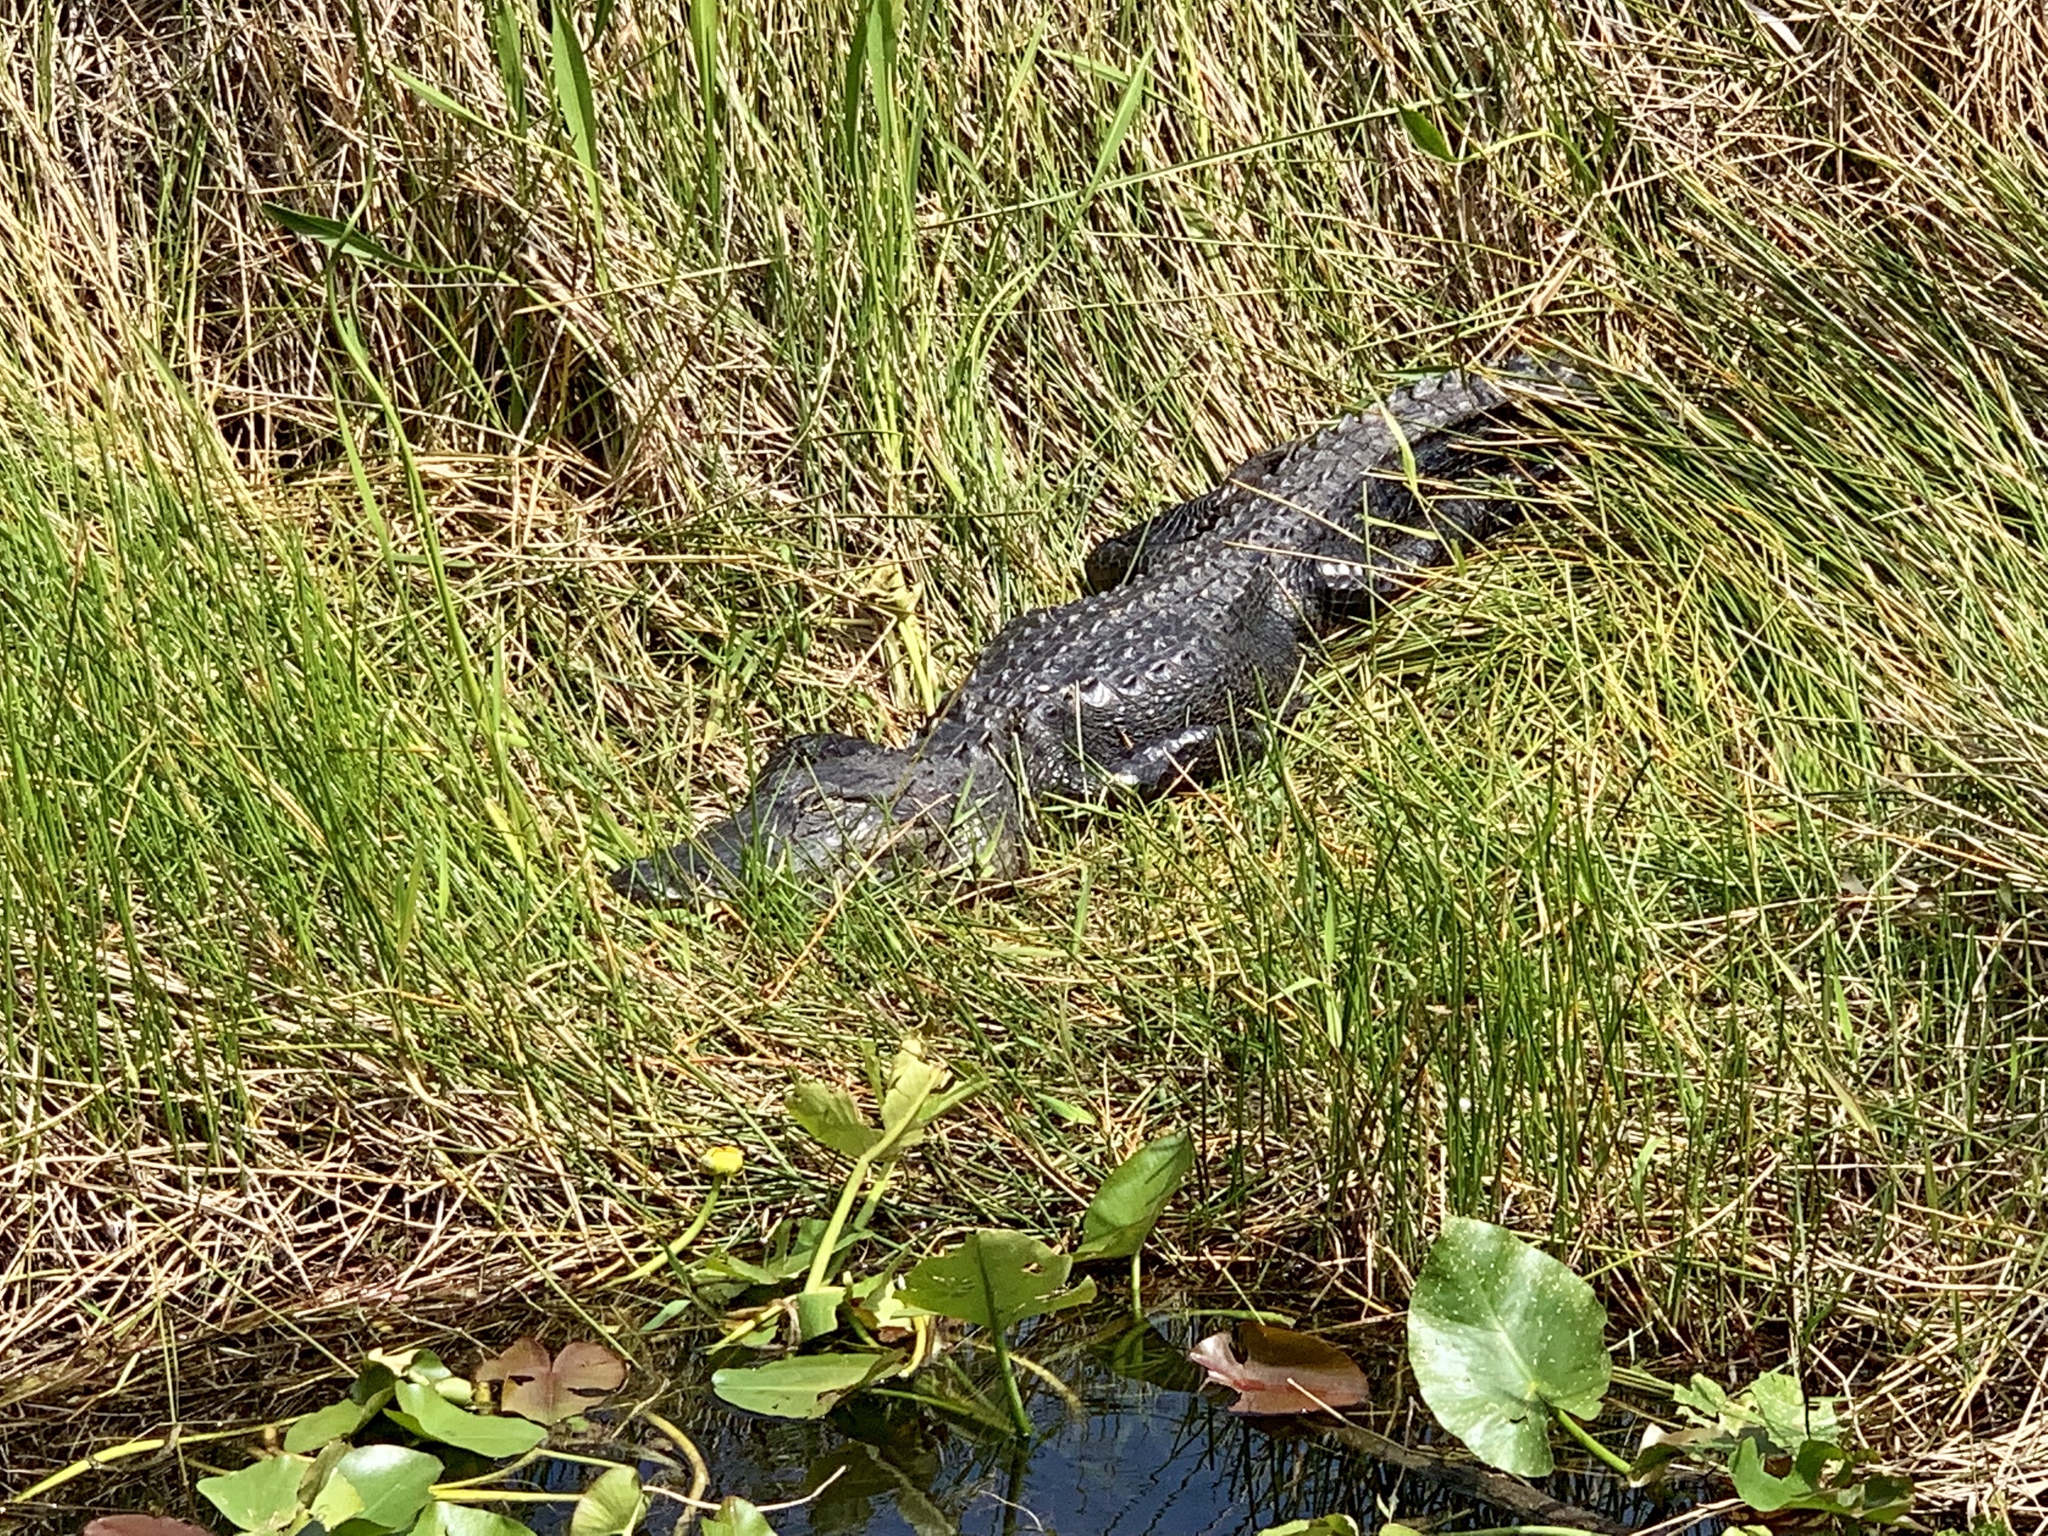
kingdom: Animalia
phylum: Chordata
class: Crocodylia
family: Alligatoridae
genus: Alligator
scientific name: Alligator mississippiensis
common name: American alligator
